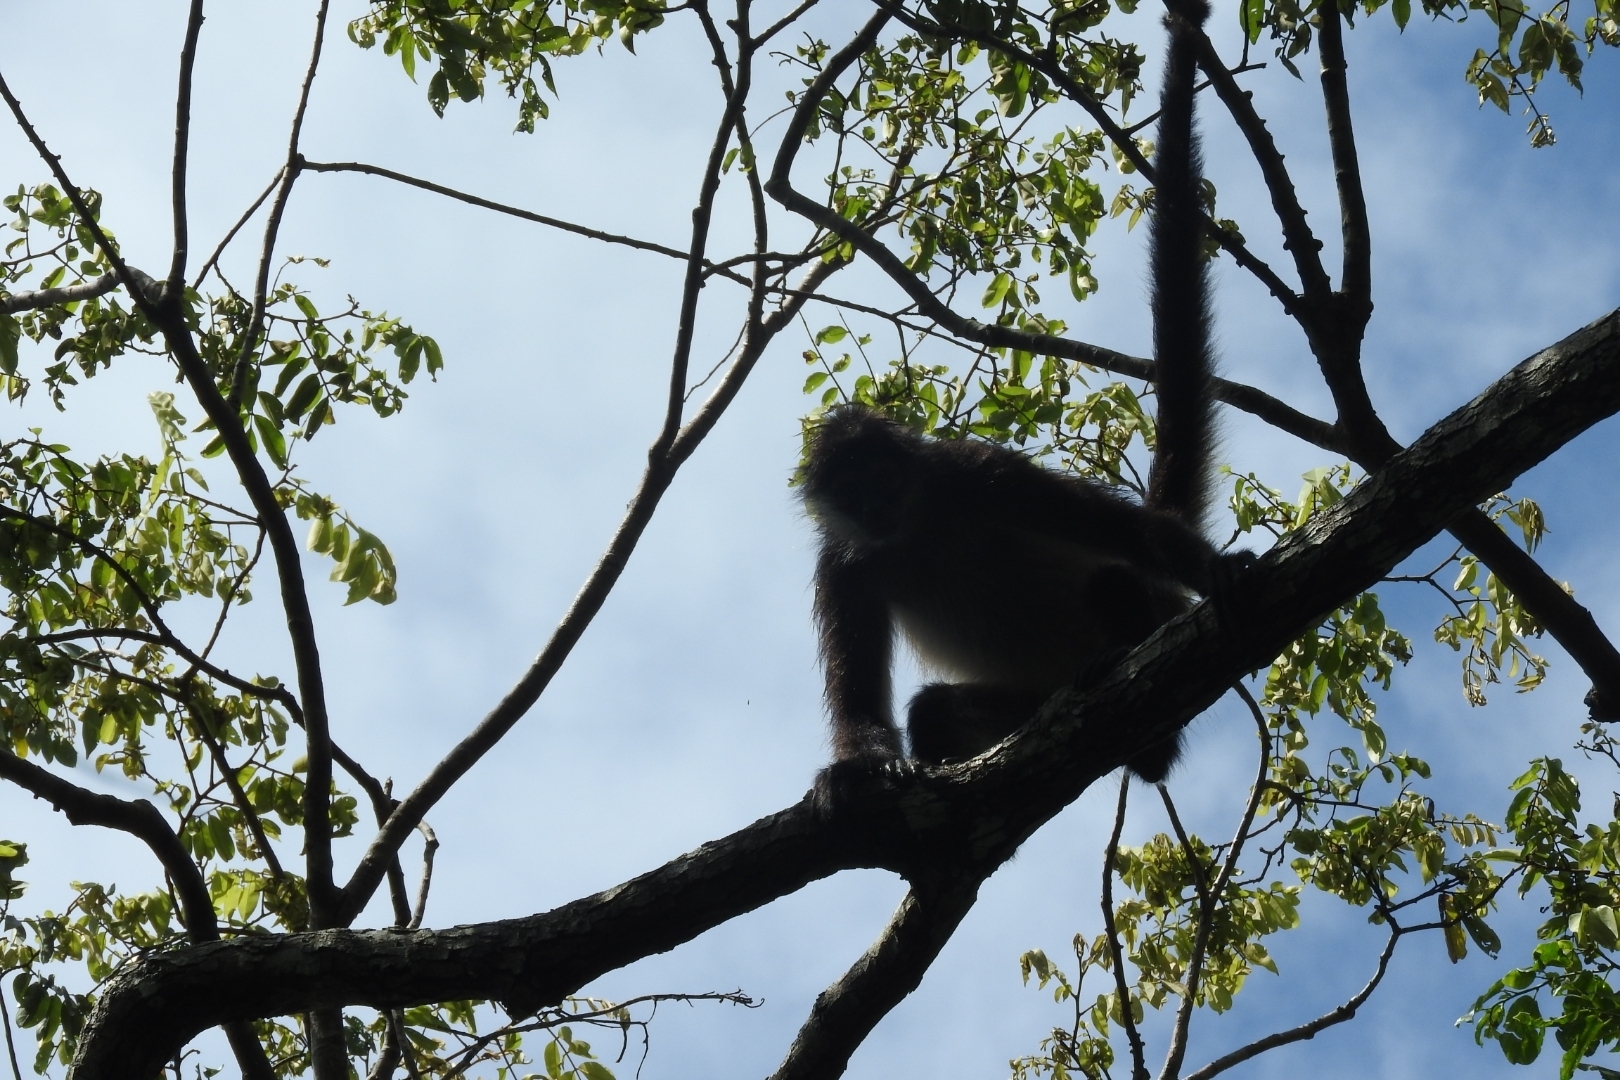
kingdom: Animalia
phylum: Chordata
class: Mammalia
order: Primates
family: Atelidae
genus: Ateles
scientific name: Ateles geoffroyi
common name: Black-handed spider monkey
